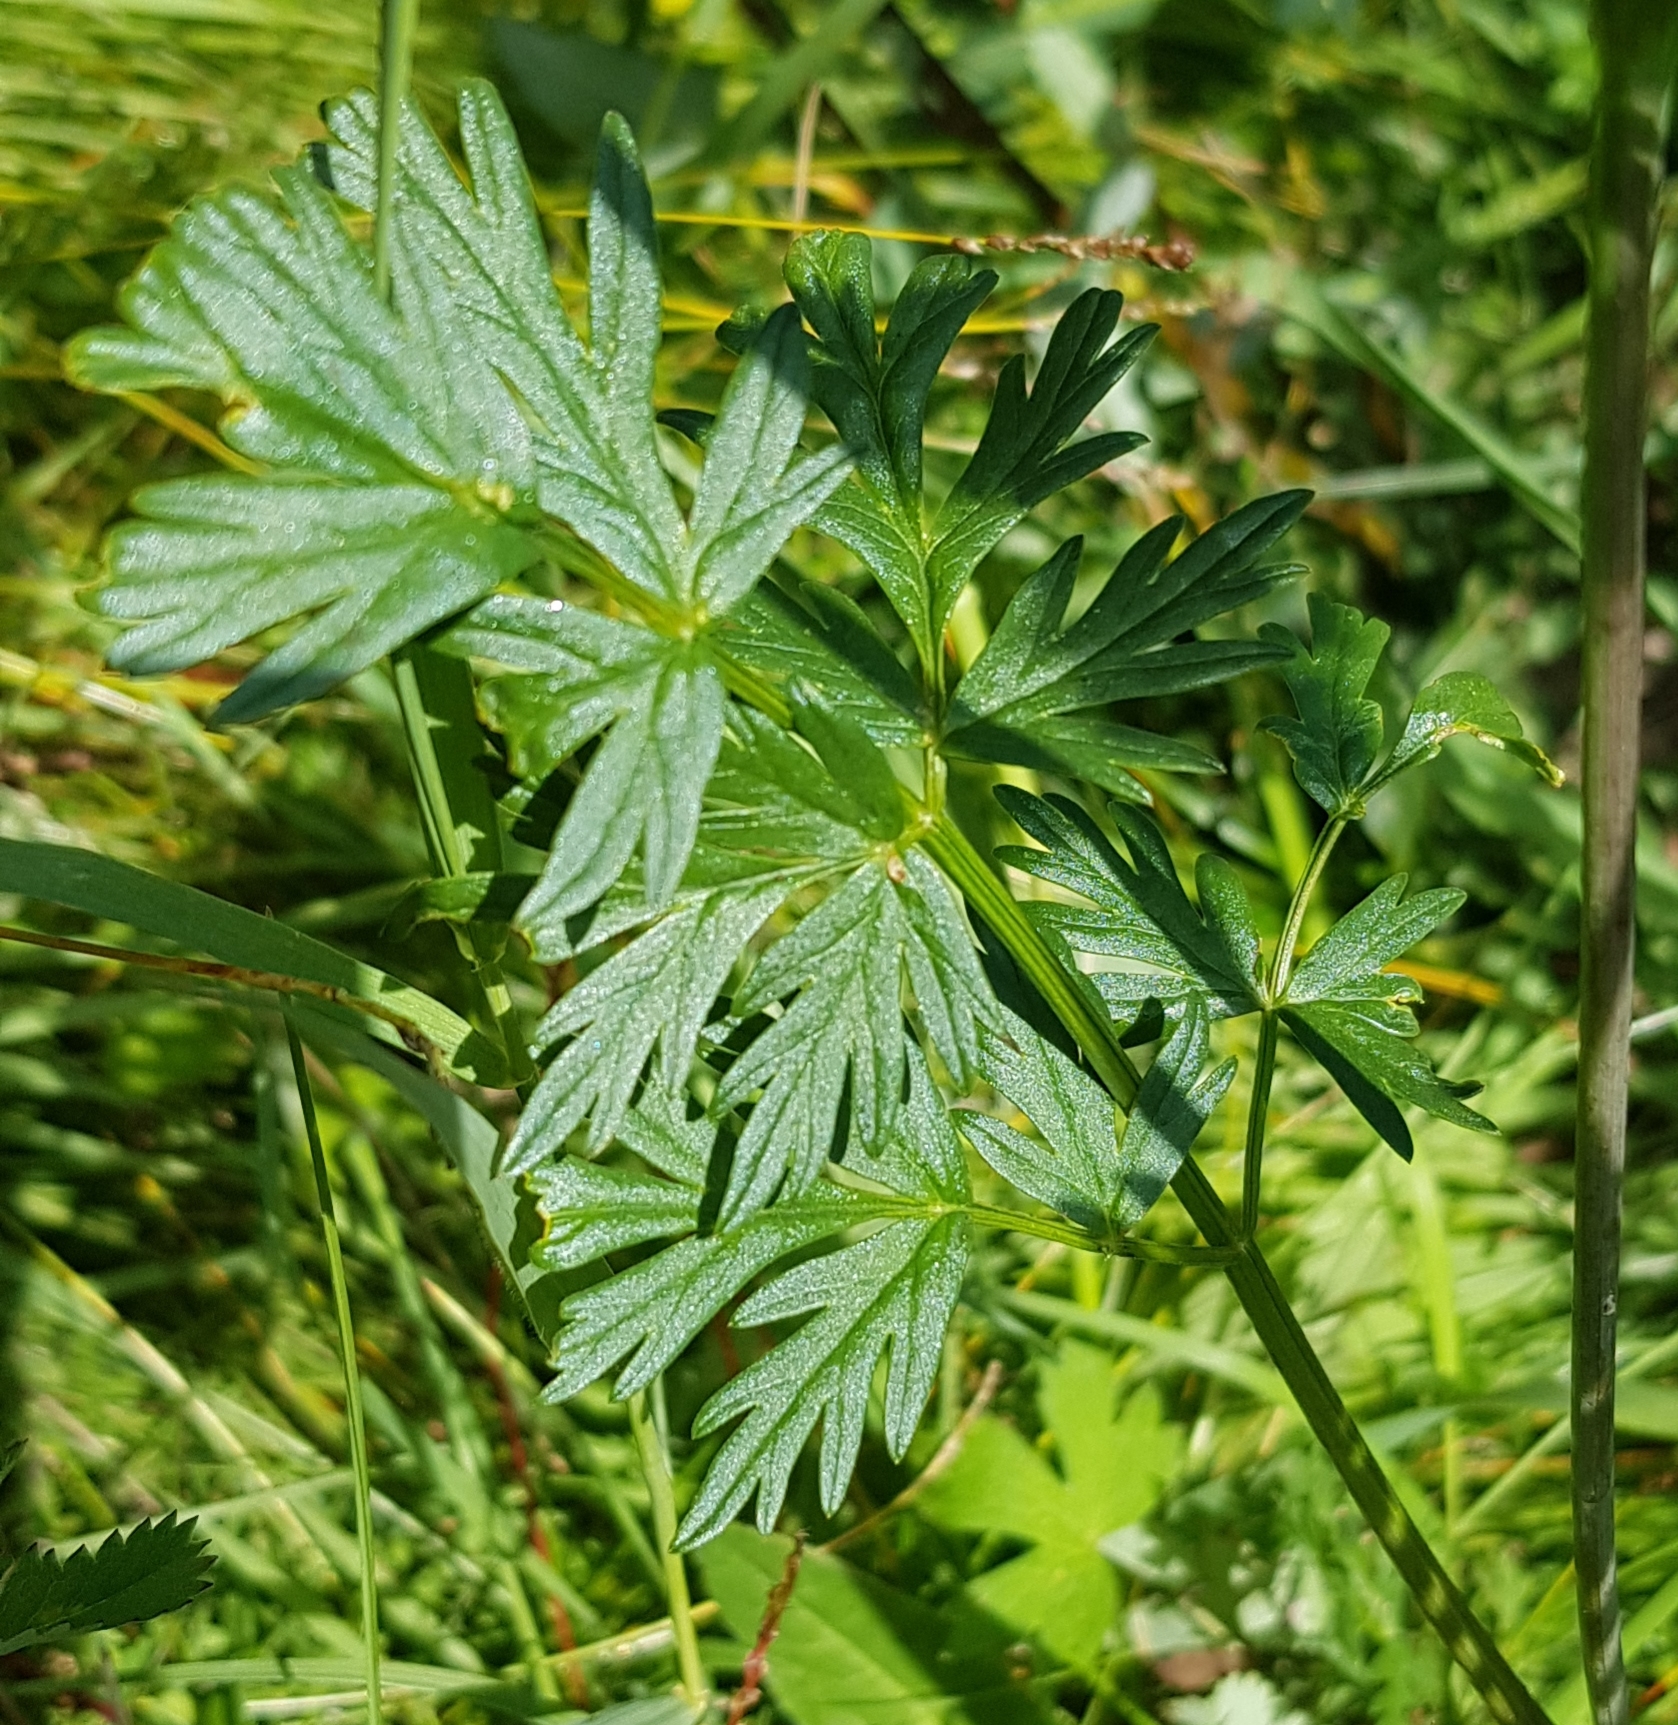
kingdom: Plantae
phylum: Tracheophyta
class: Magnoliopsida
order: Apiales
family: Apiaceae
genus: Conioselinum
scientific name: Conioselinum tataricum
